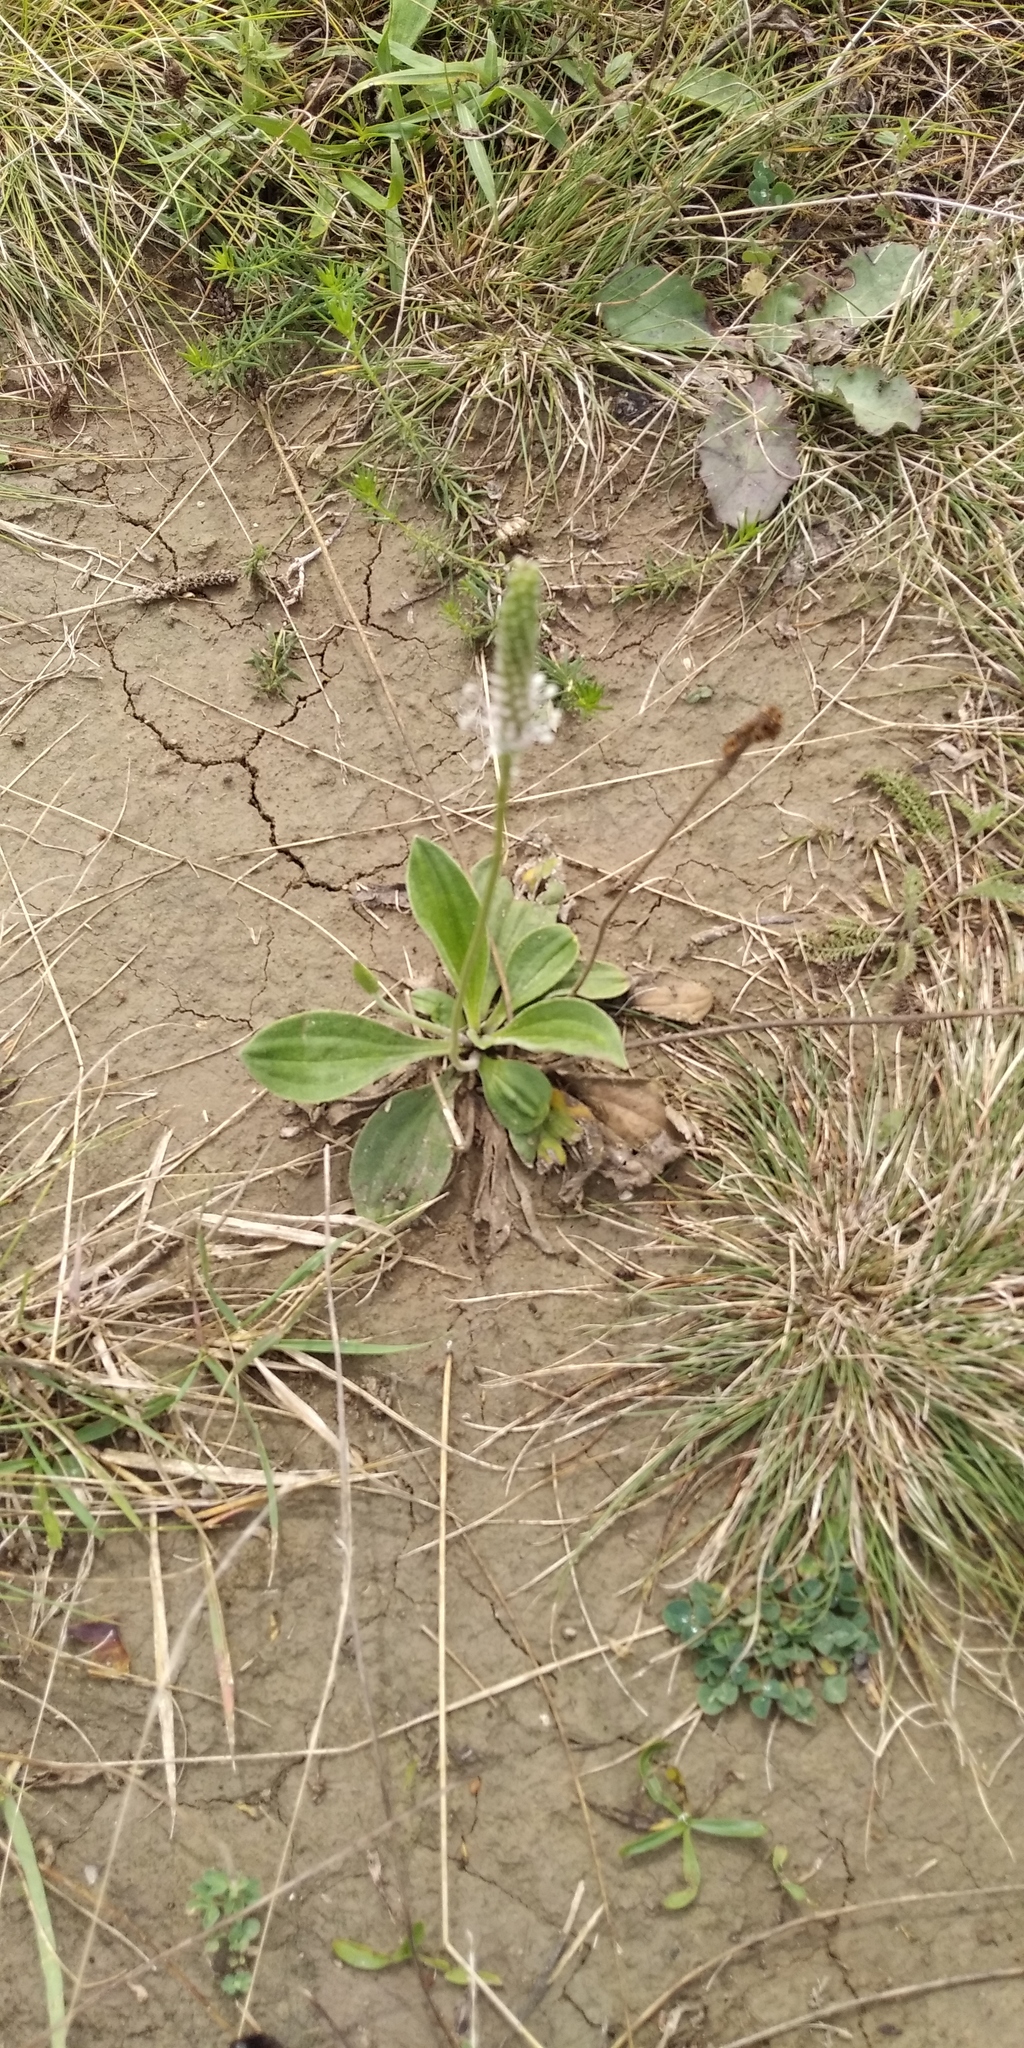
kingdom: Plantae
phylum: Tracheophyta
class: Magnoliopsida
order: Lamiales
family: Plantaginaceae
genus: Plantago
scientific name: Plantago media
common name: Hoary plantain
